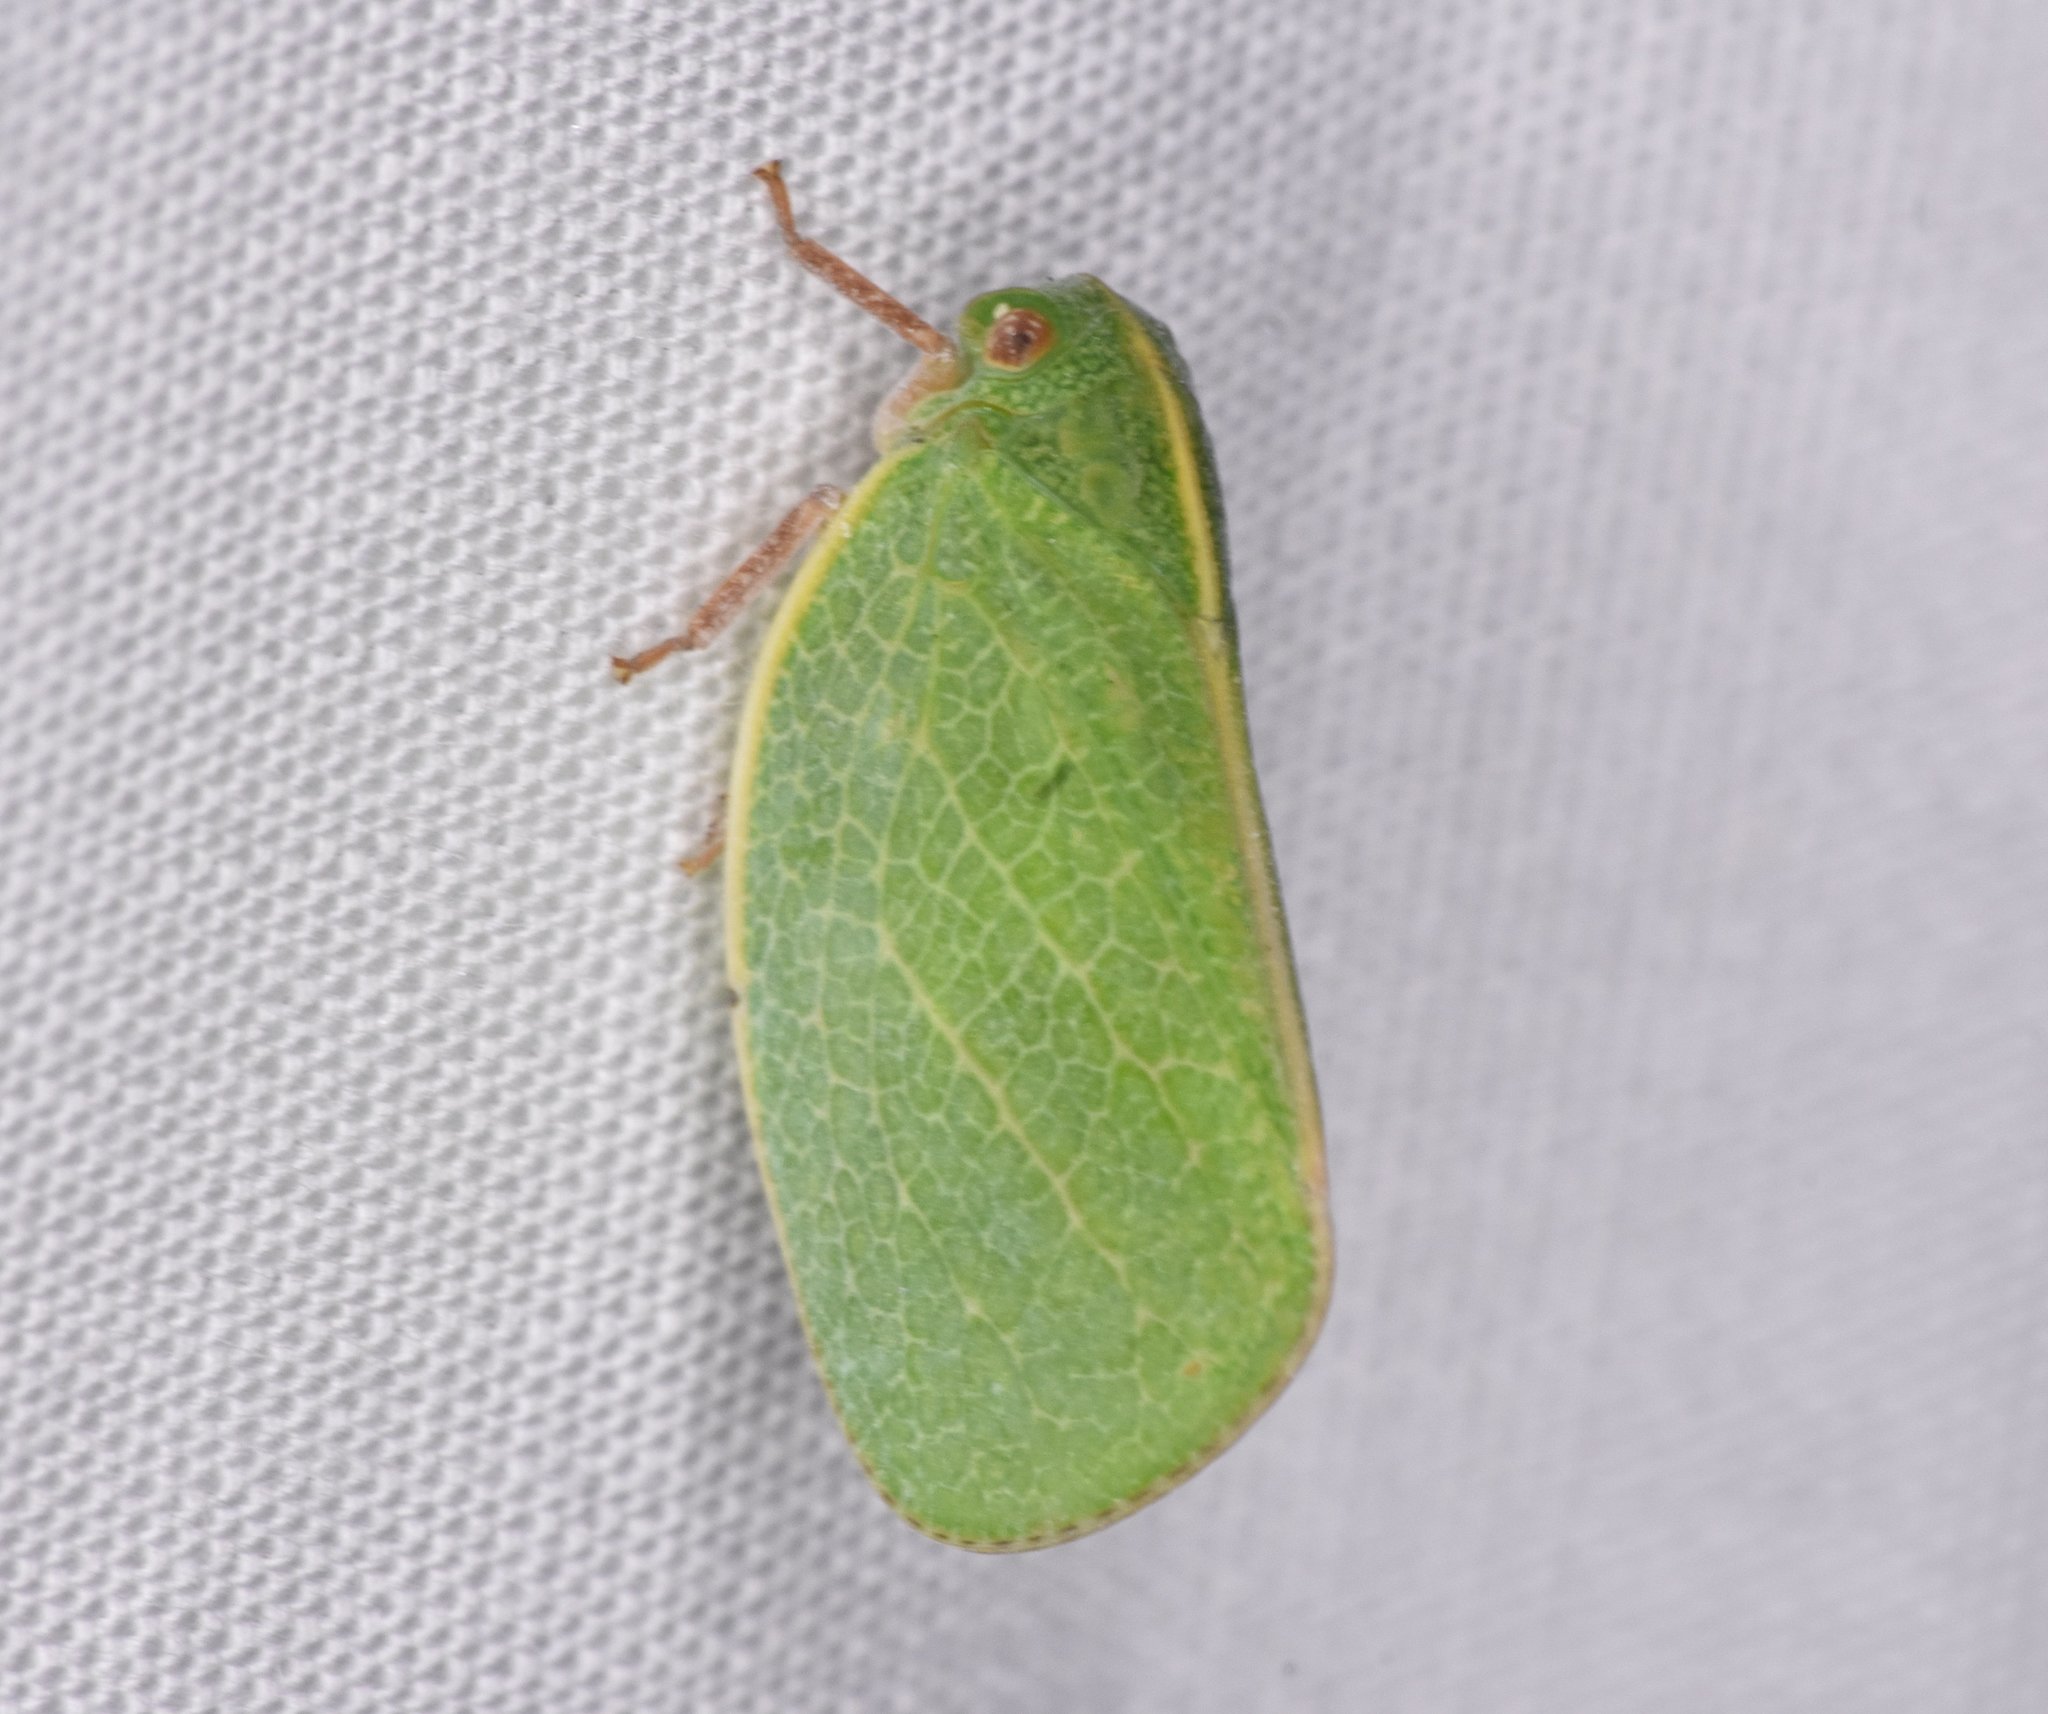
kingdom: Animalia
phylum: Arthropoda
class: Insecta
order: Hemiptera
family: Acanaloniidae
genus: Acanalonia
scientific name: Acanalonia servillei
